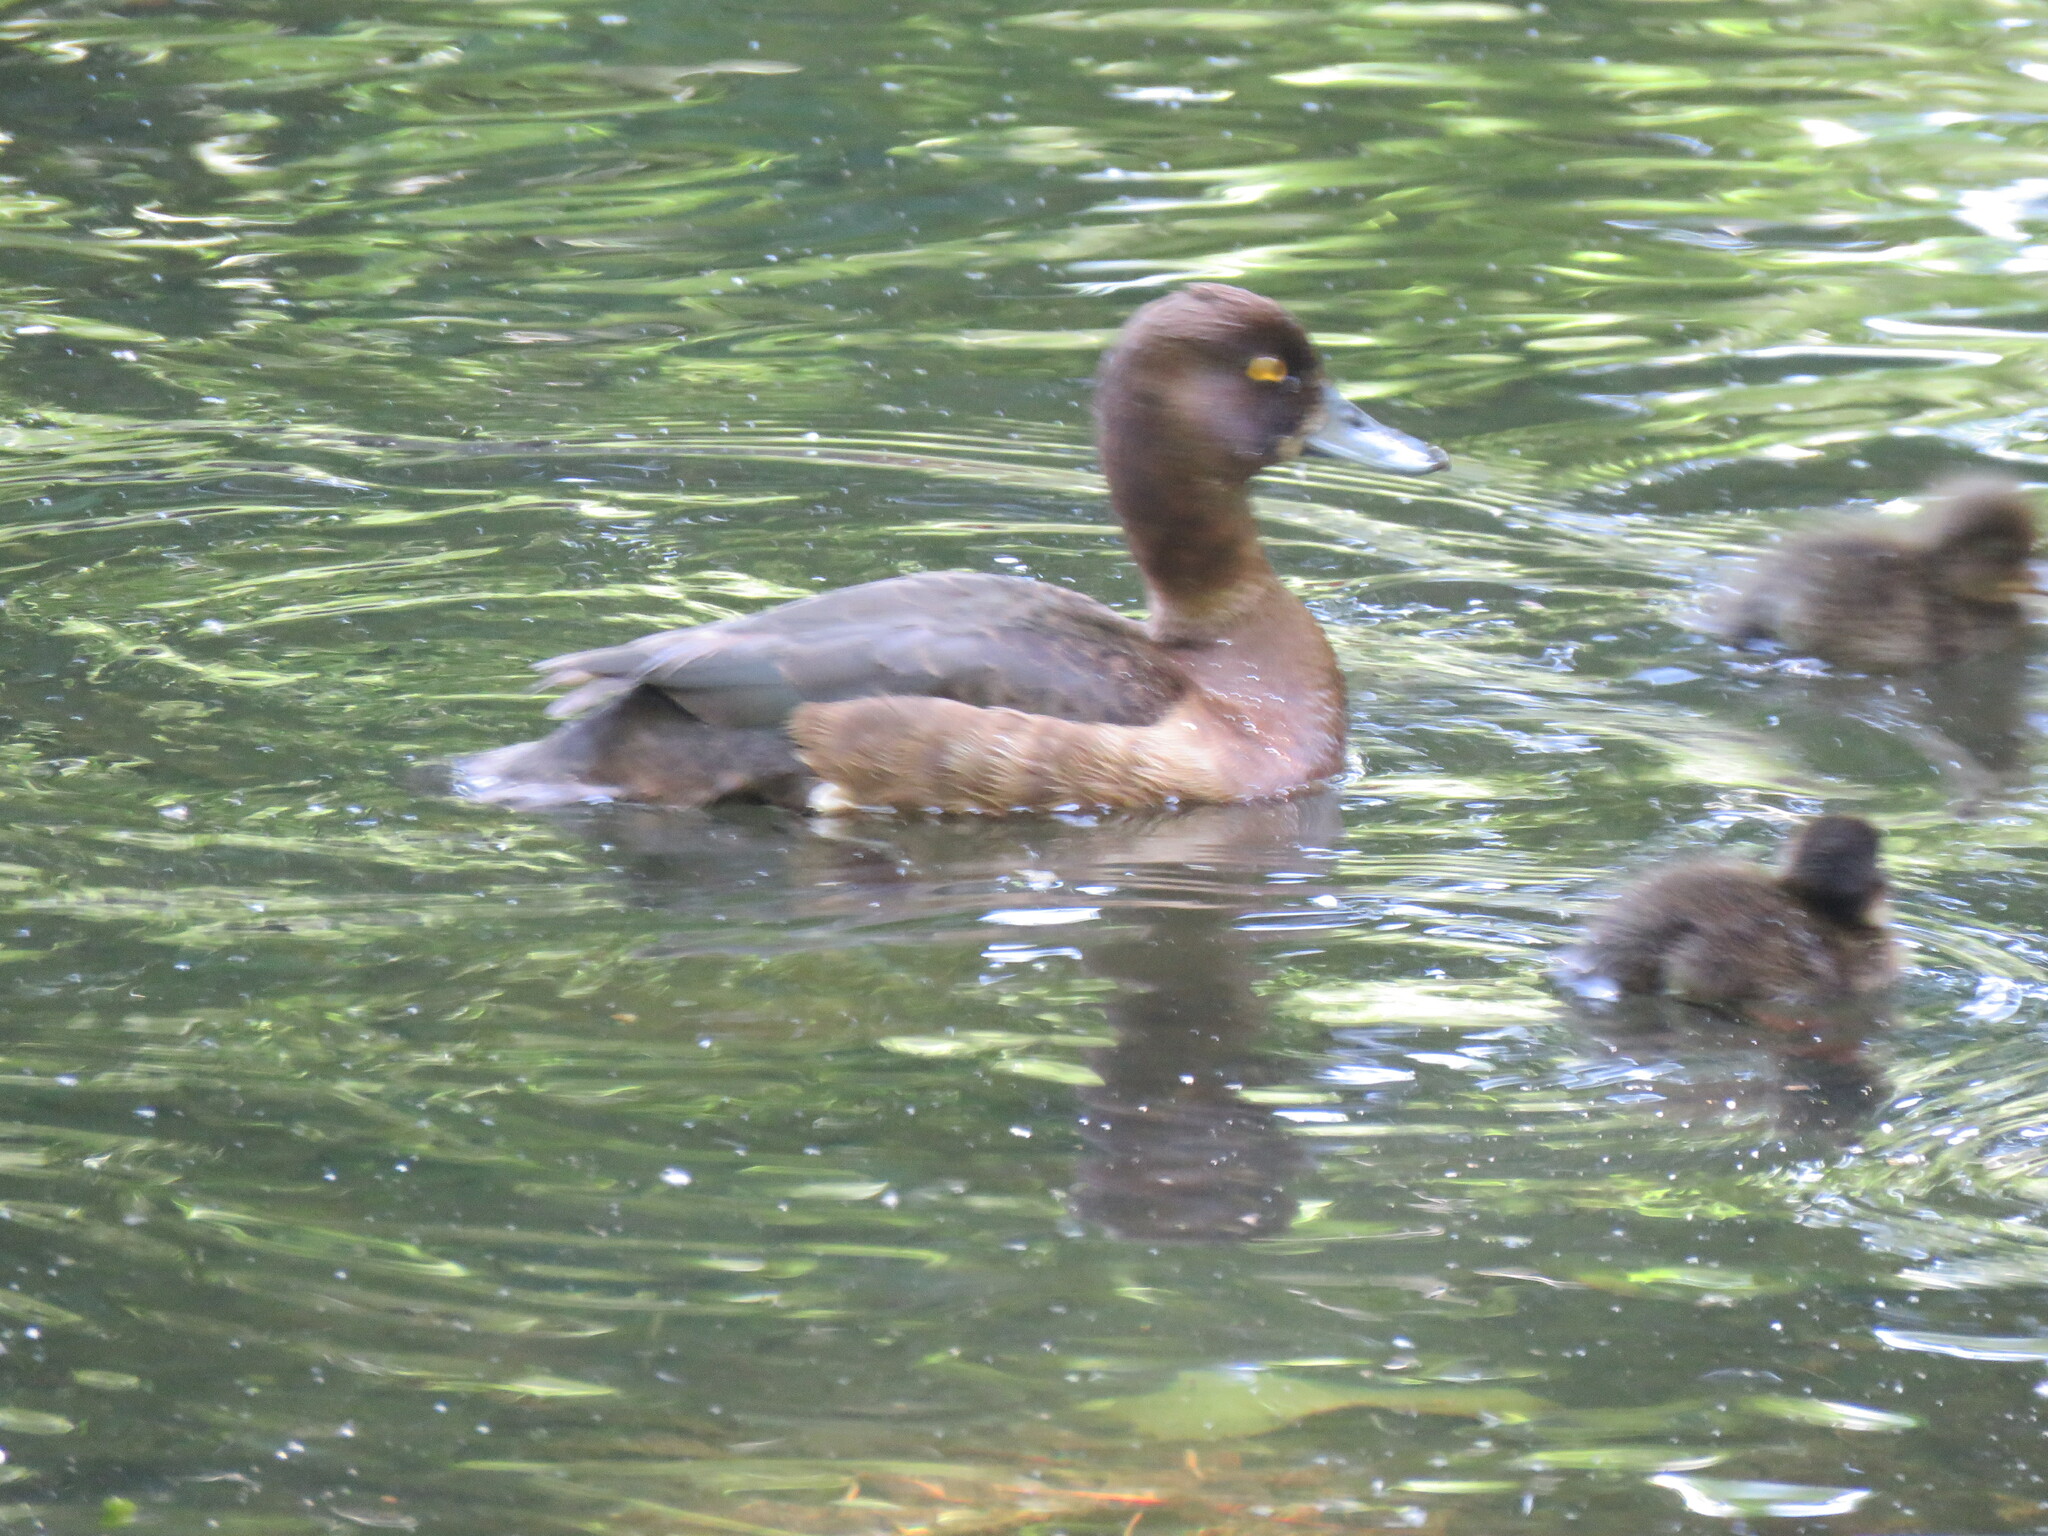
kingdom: Animalia
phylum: Chordata
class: Aves
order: Anseriformes
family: Anatidae
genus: Aythya
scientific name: Aythya fuligula
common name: Tufted duck
